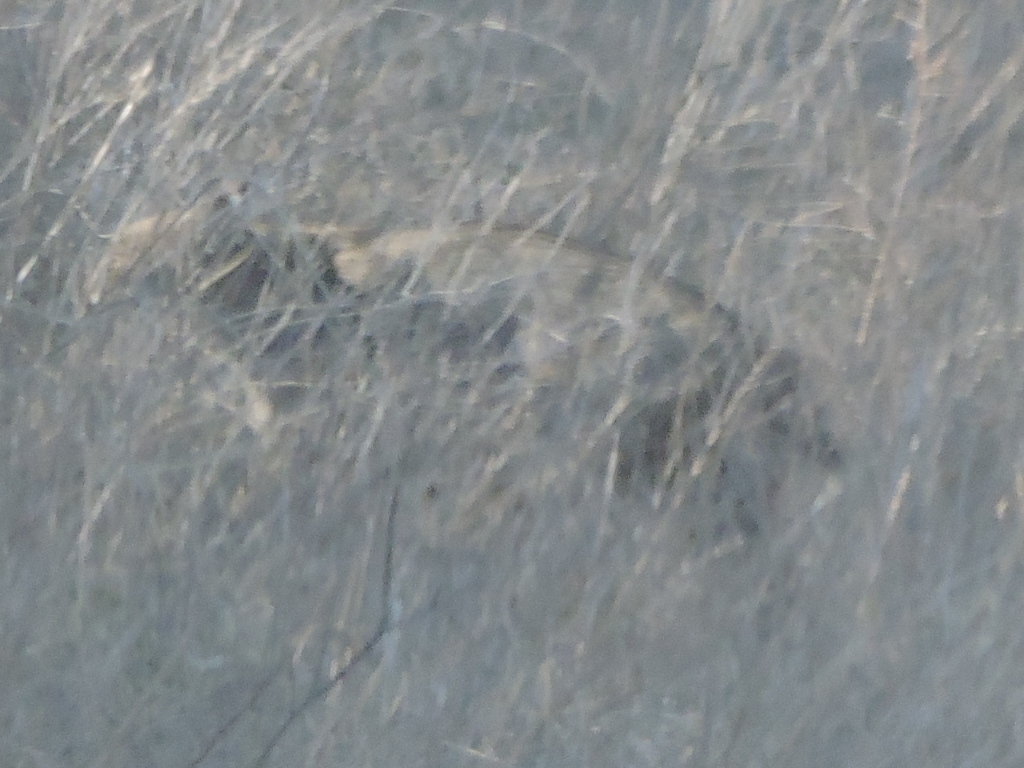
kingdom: Animalia
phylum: Chordata
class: Mammalia
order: Carnivora
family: Felidae
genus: Lynx
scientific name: Lynx rufus
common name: Bobcat
